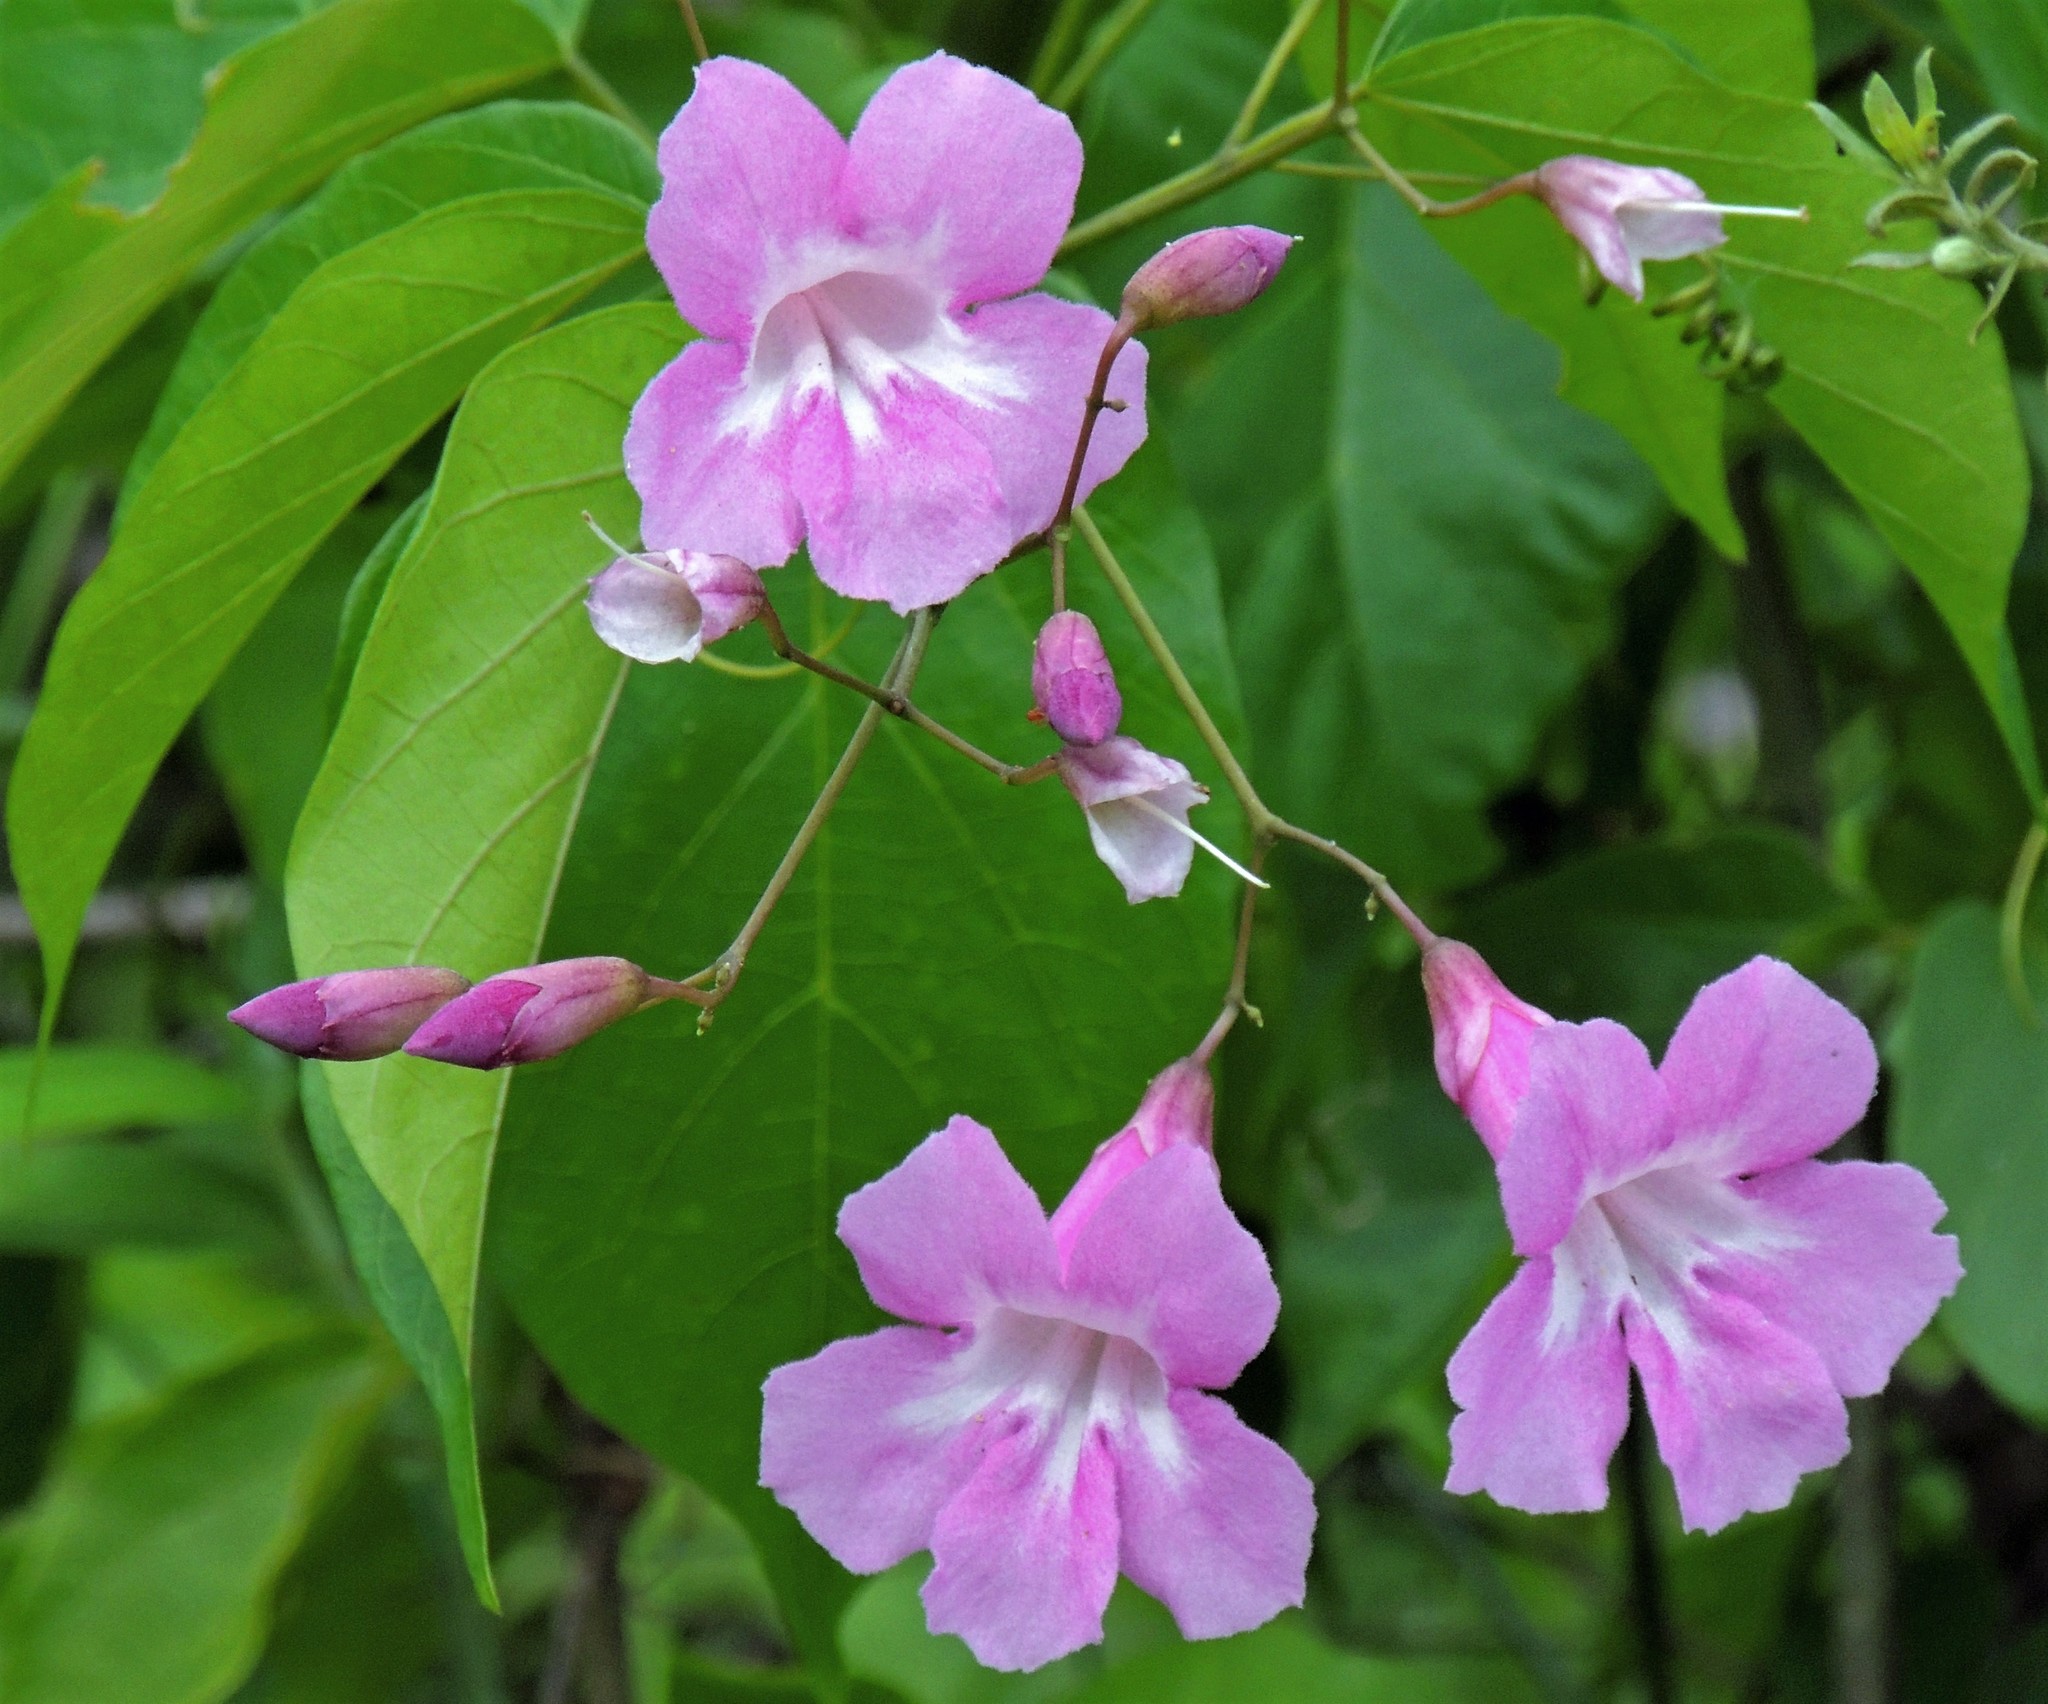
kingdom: Plantae
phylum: Tracheophyta
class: Magnoliopsida
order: Lamiales
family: Bignoniaceae
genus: Tanaecium
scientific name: Tanaecium selloi
